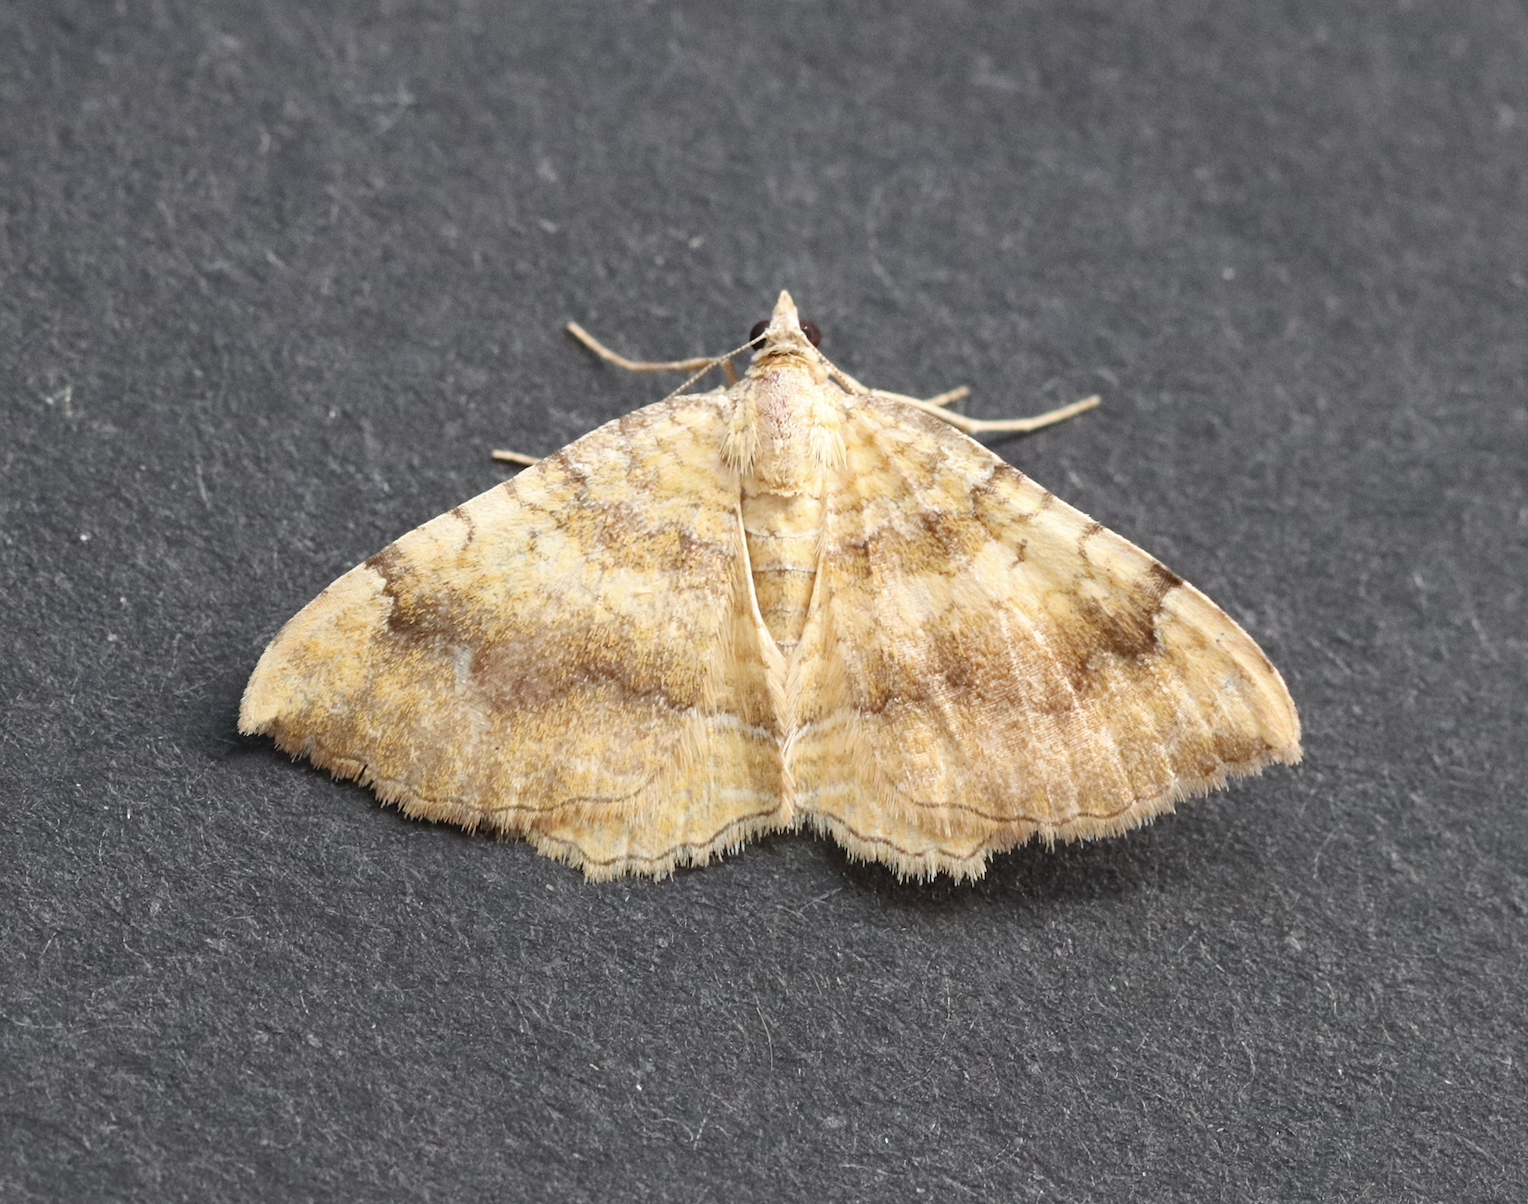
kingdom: Animalia
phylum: Arthropoda
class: Insecta
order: Lepidoptera
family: Geometridae
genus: Camptogramma
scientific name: Camptogramma bilineata
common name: Yellow shell
